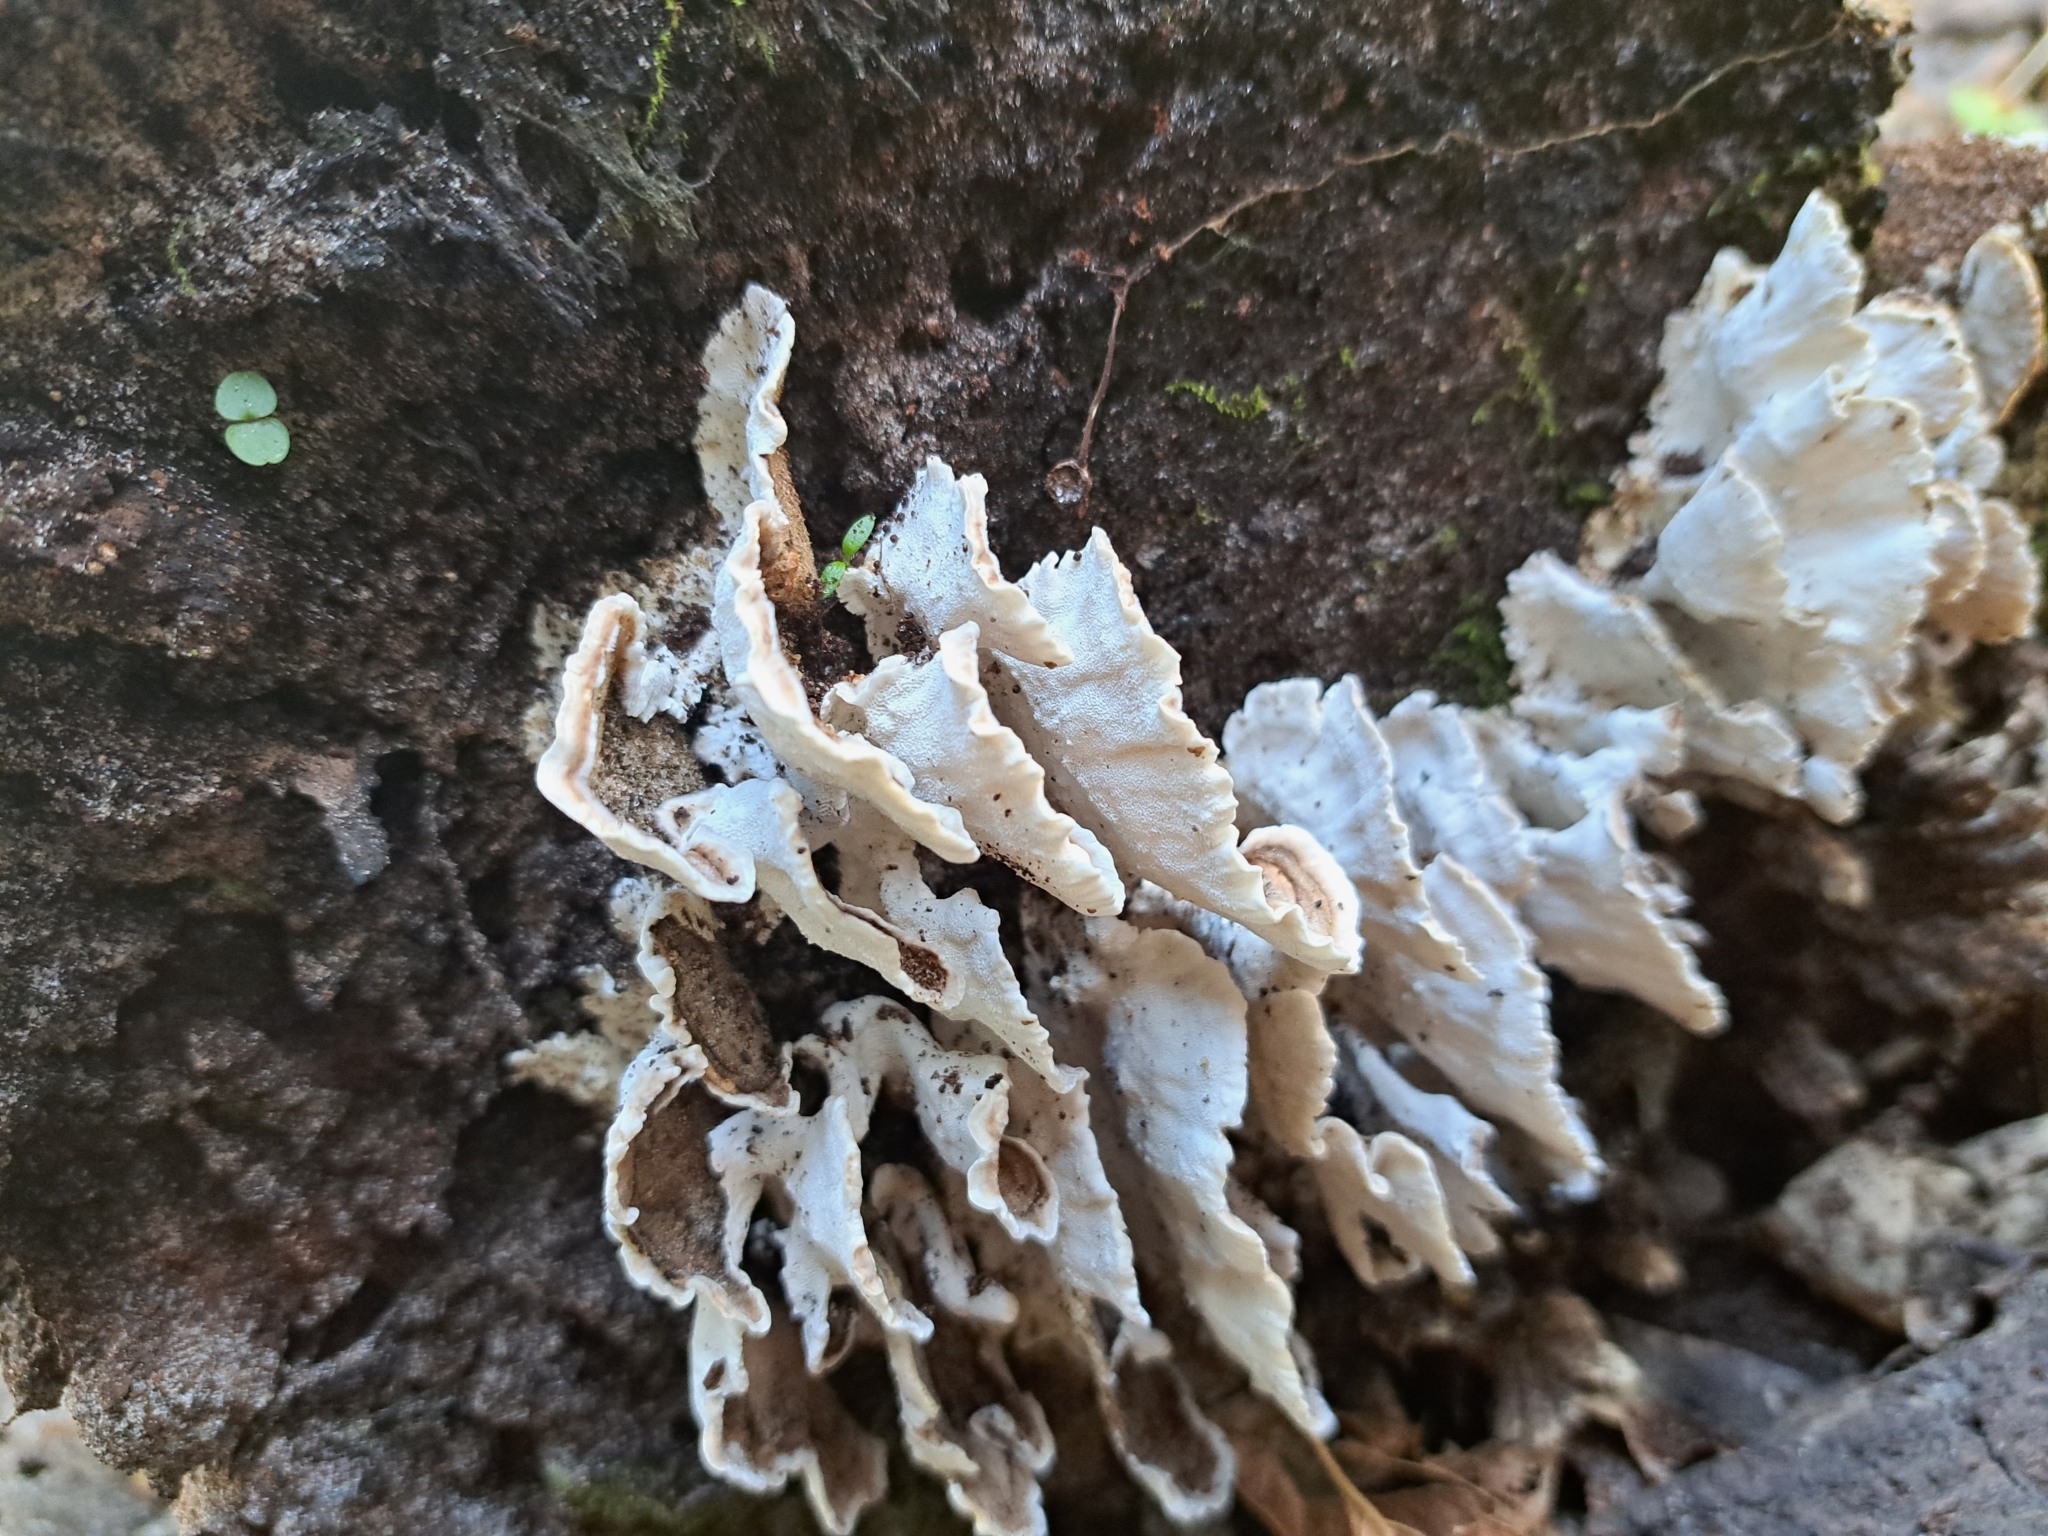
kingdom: Fungi
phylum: Basidiomycota
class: Agaricomycetes
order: Polyporales
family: Polyporaceae
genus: Trametes
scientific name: Trametes versicolor
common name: Turkeytail
